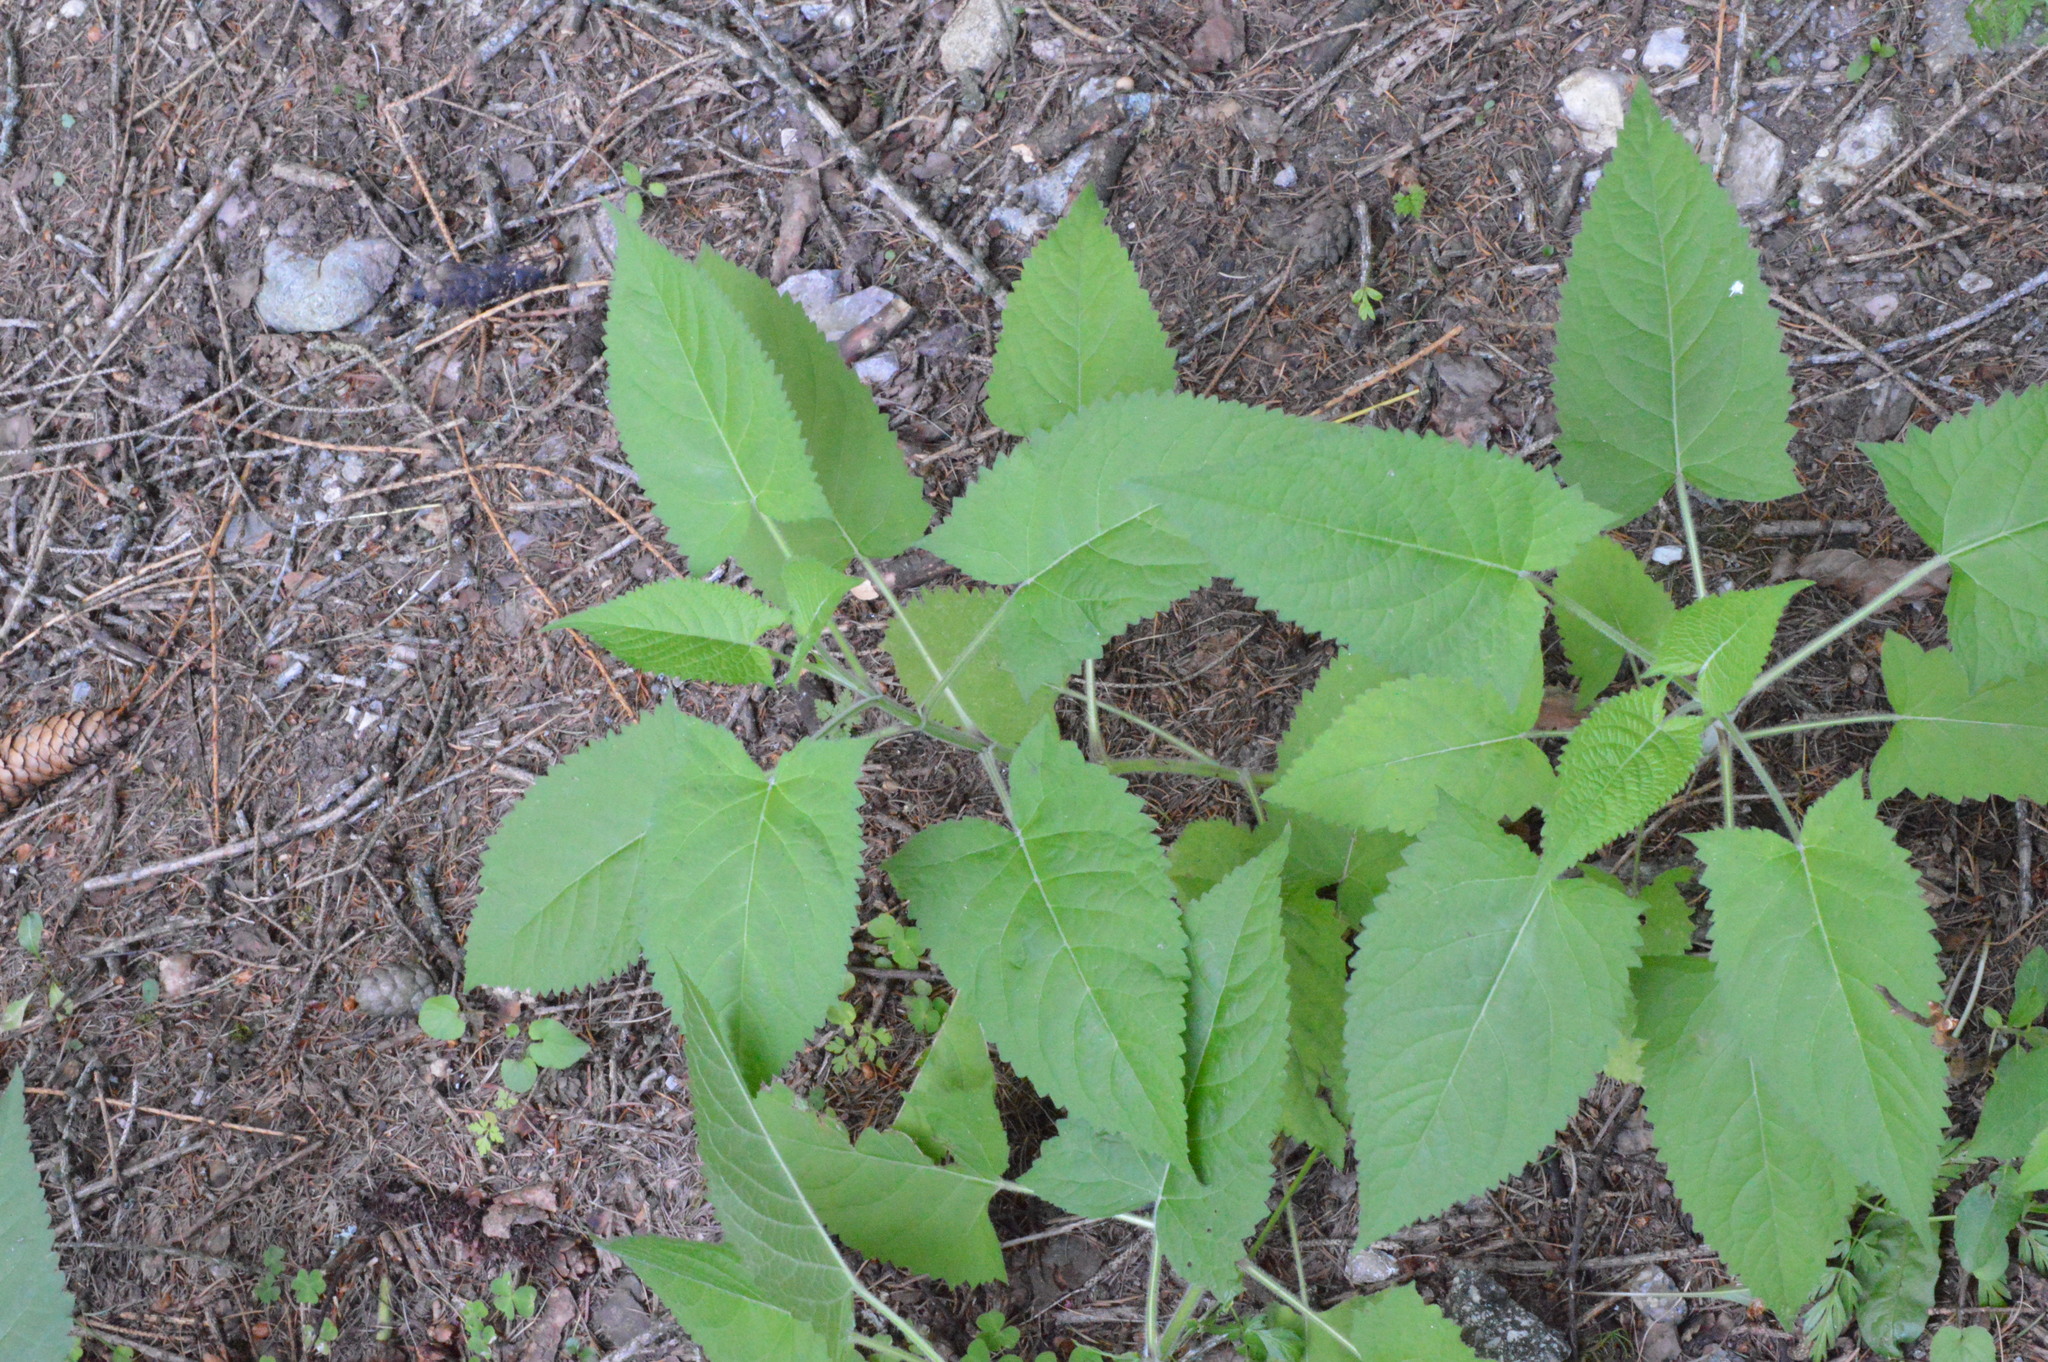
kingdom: Plantae
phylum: Tracheophyta
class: Magnoliopsida
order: Lamiales
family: Lamiaceae
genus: Salvia
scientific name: Salvia glutinosa
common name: Sticky clary
